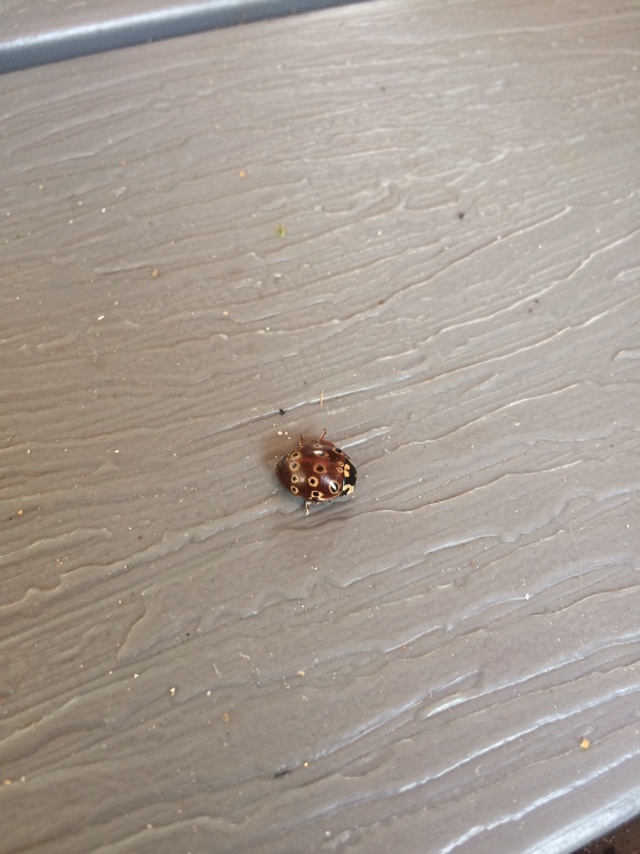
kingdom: Animalia
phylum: Arthropoda
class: Insecta
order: Coleoptera
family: Coccinellidae
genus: Anatis
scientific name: Anatis mali
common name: Eye-spotted lady beetle
